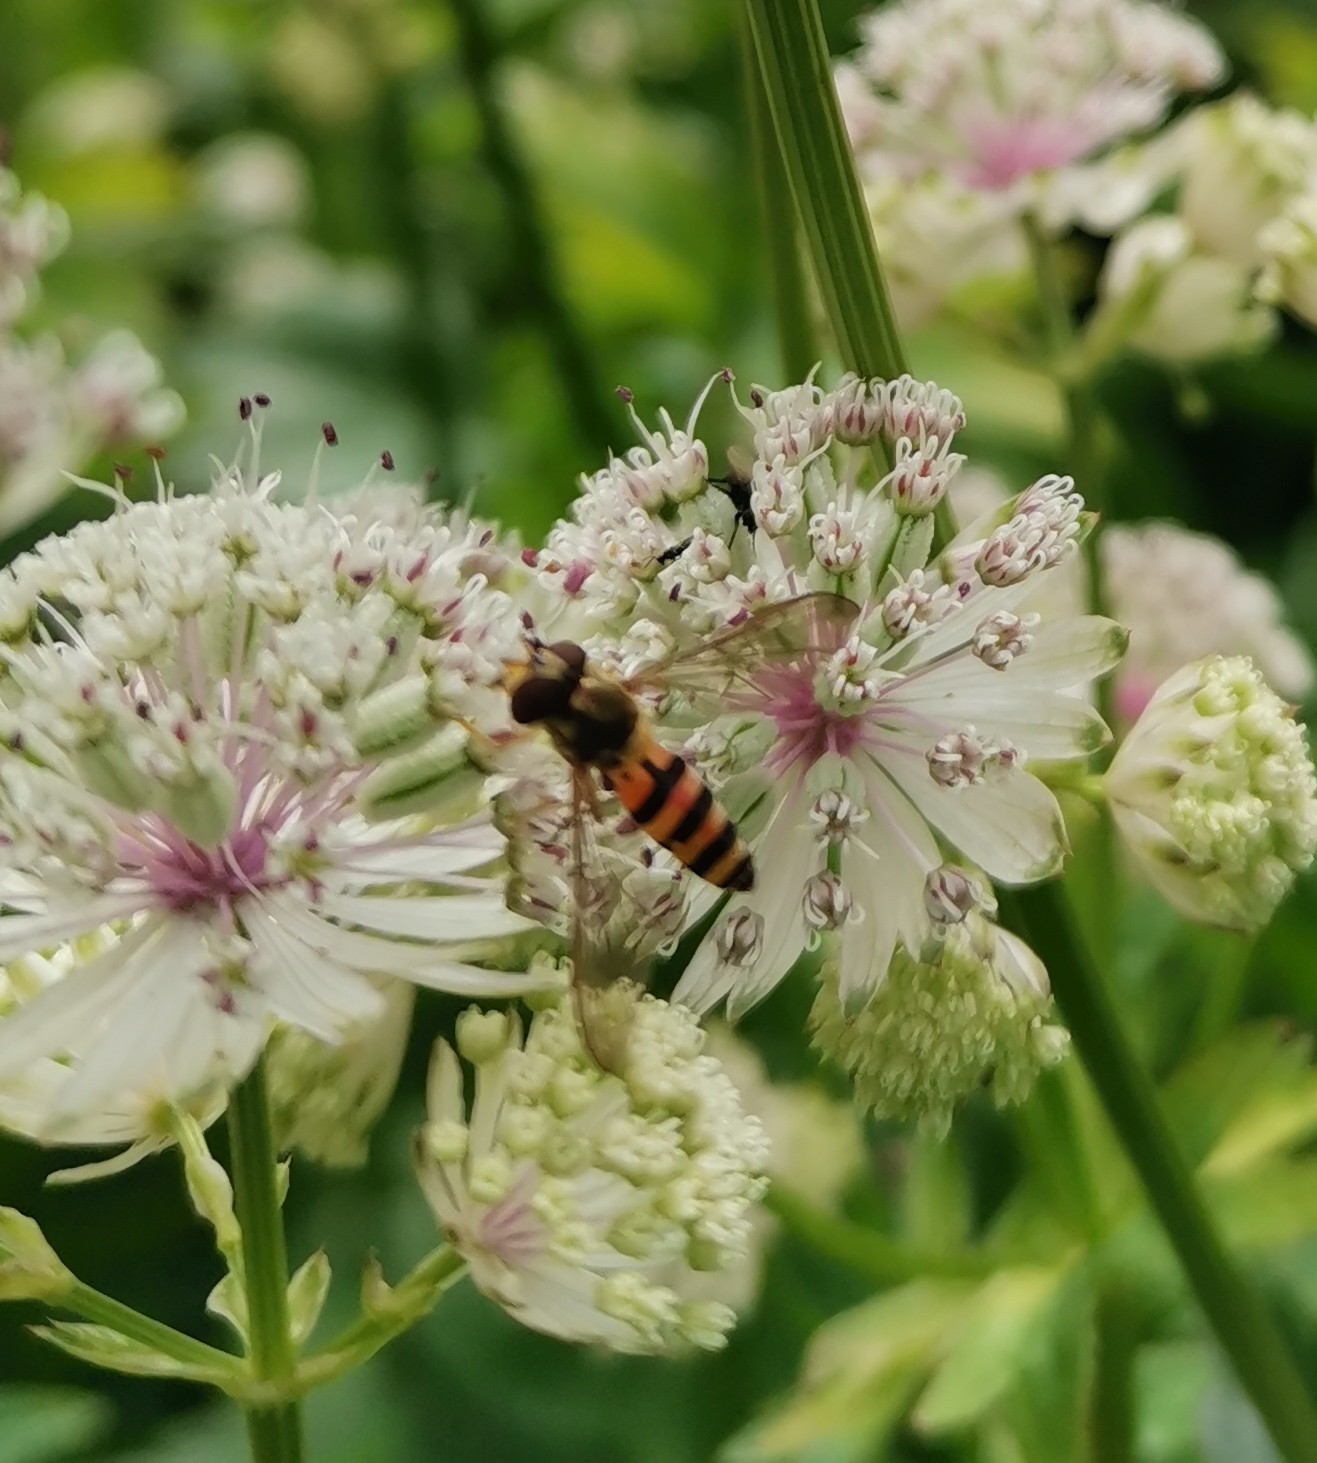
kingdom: Animalia
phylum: Arthropoda
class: Insecta
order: Diptera
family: Syrphidae
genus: Meliscaeva
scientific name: Meliscaeva cinctella
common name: American thintail fly
